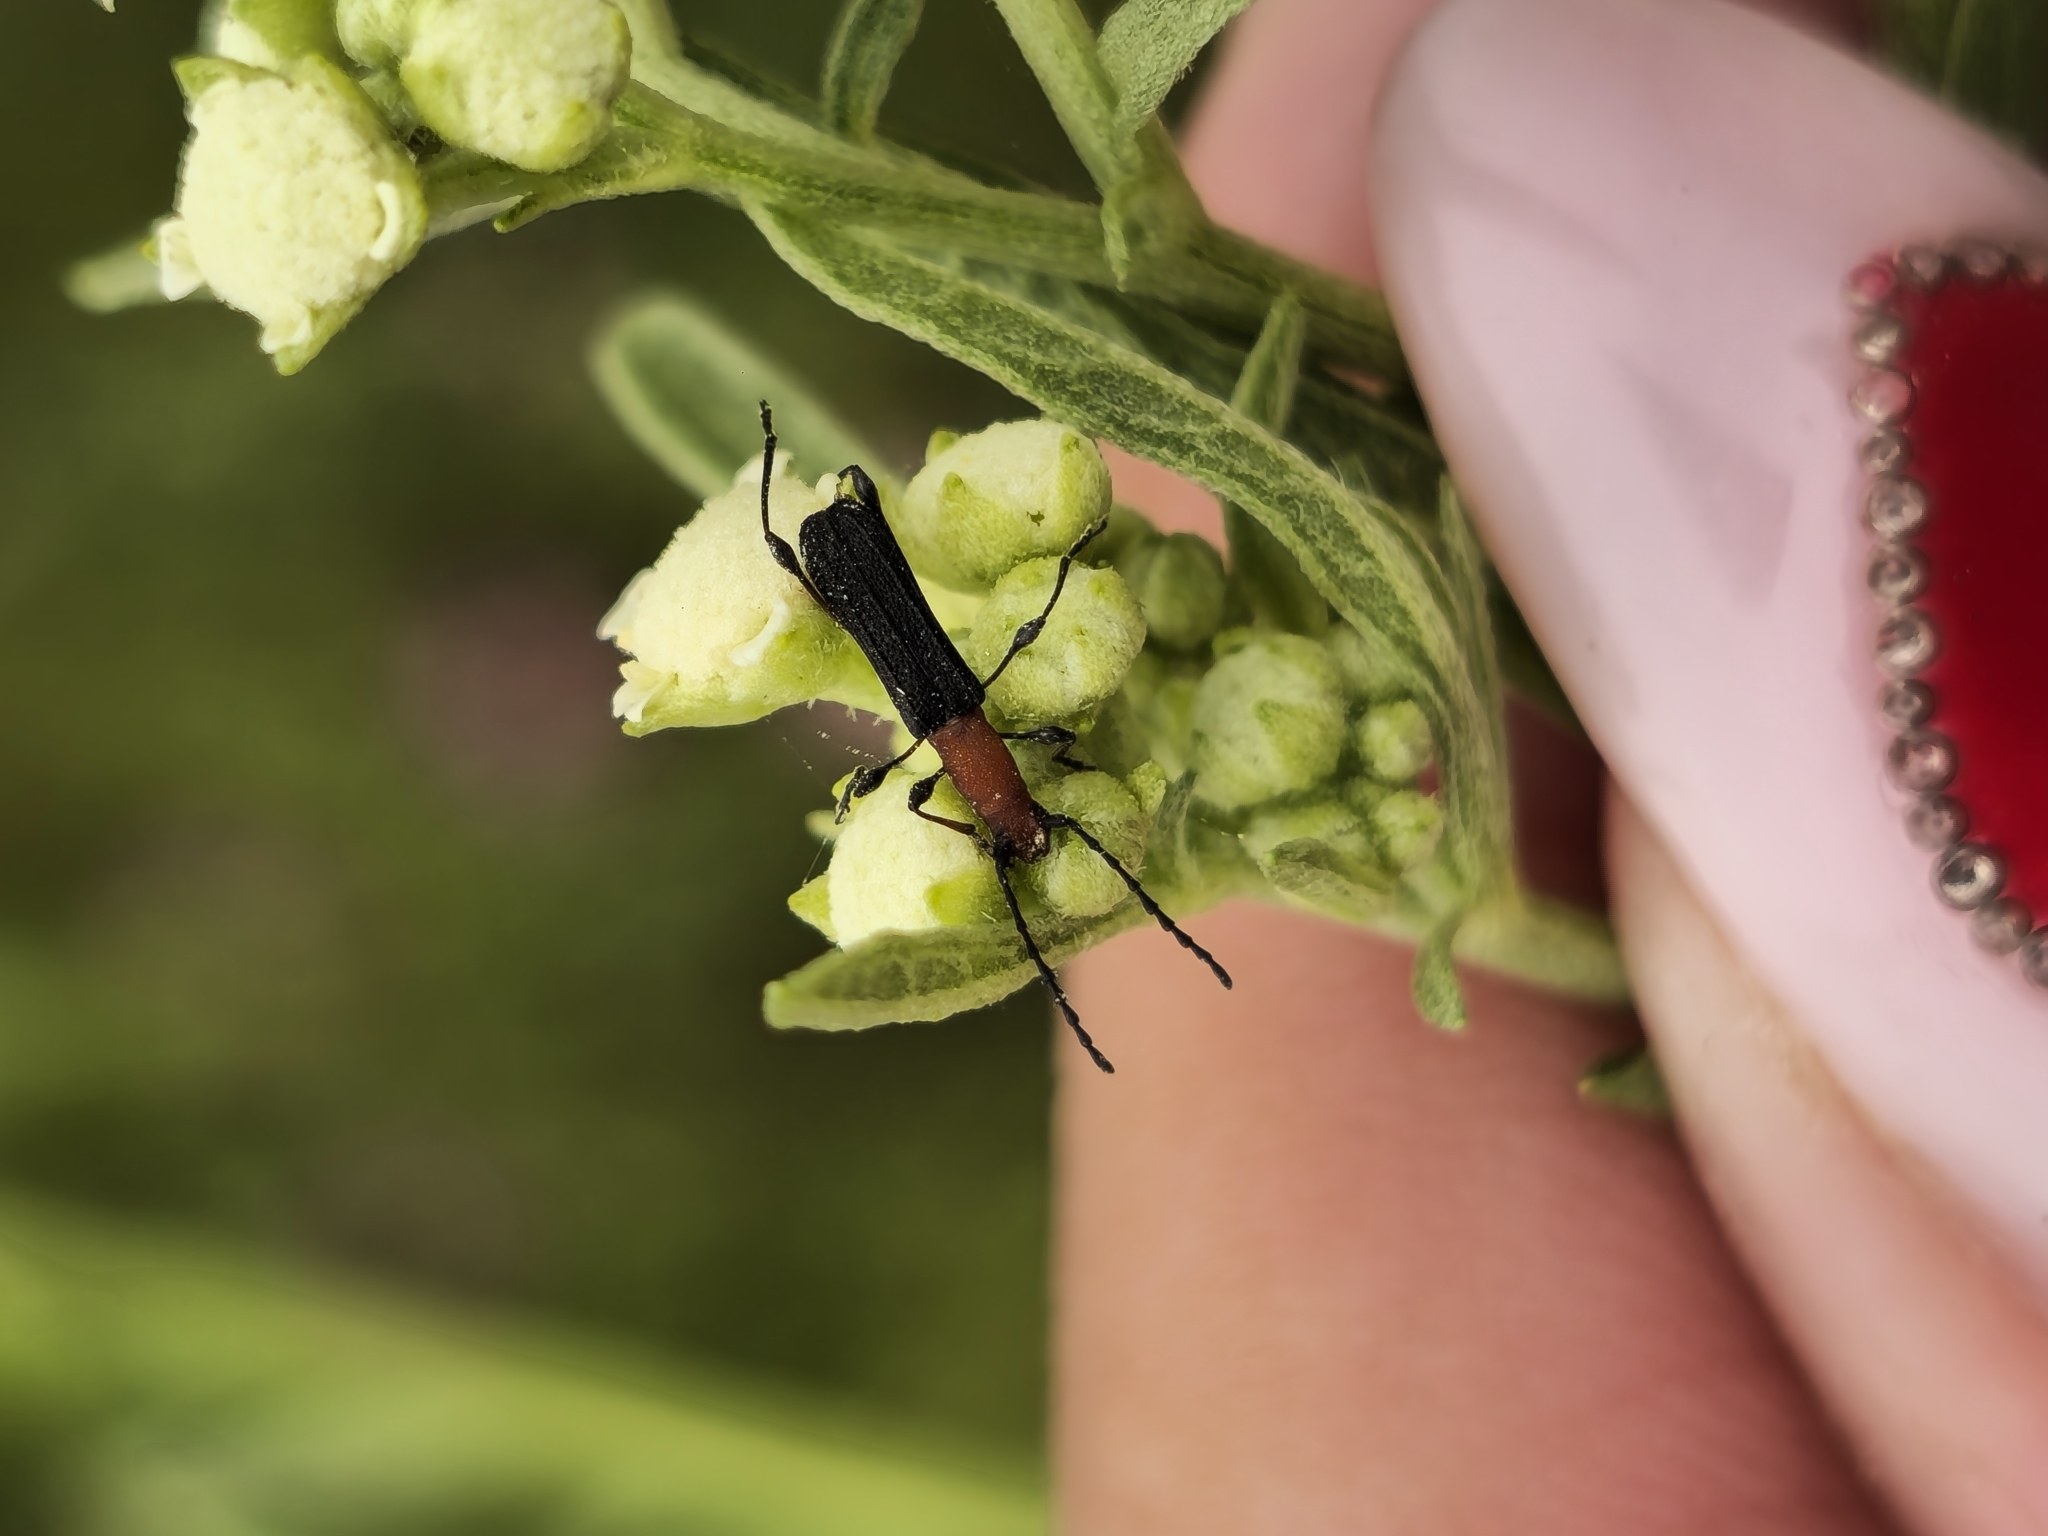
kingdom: Animalia
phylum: Arthropoda
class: Insecta
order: Coleoptera
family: Cerambycidae
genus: Dihammaphora
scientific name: Dihammaphora bruchi
